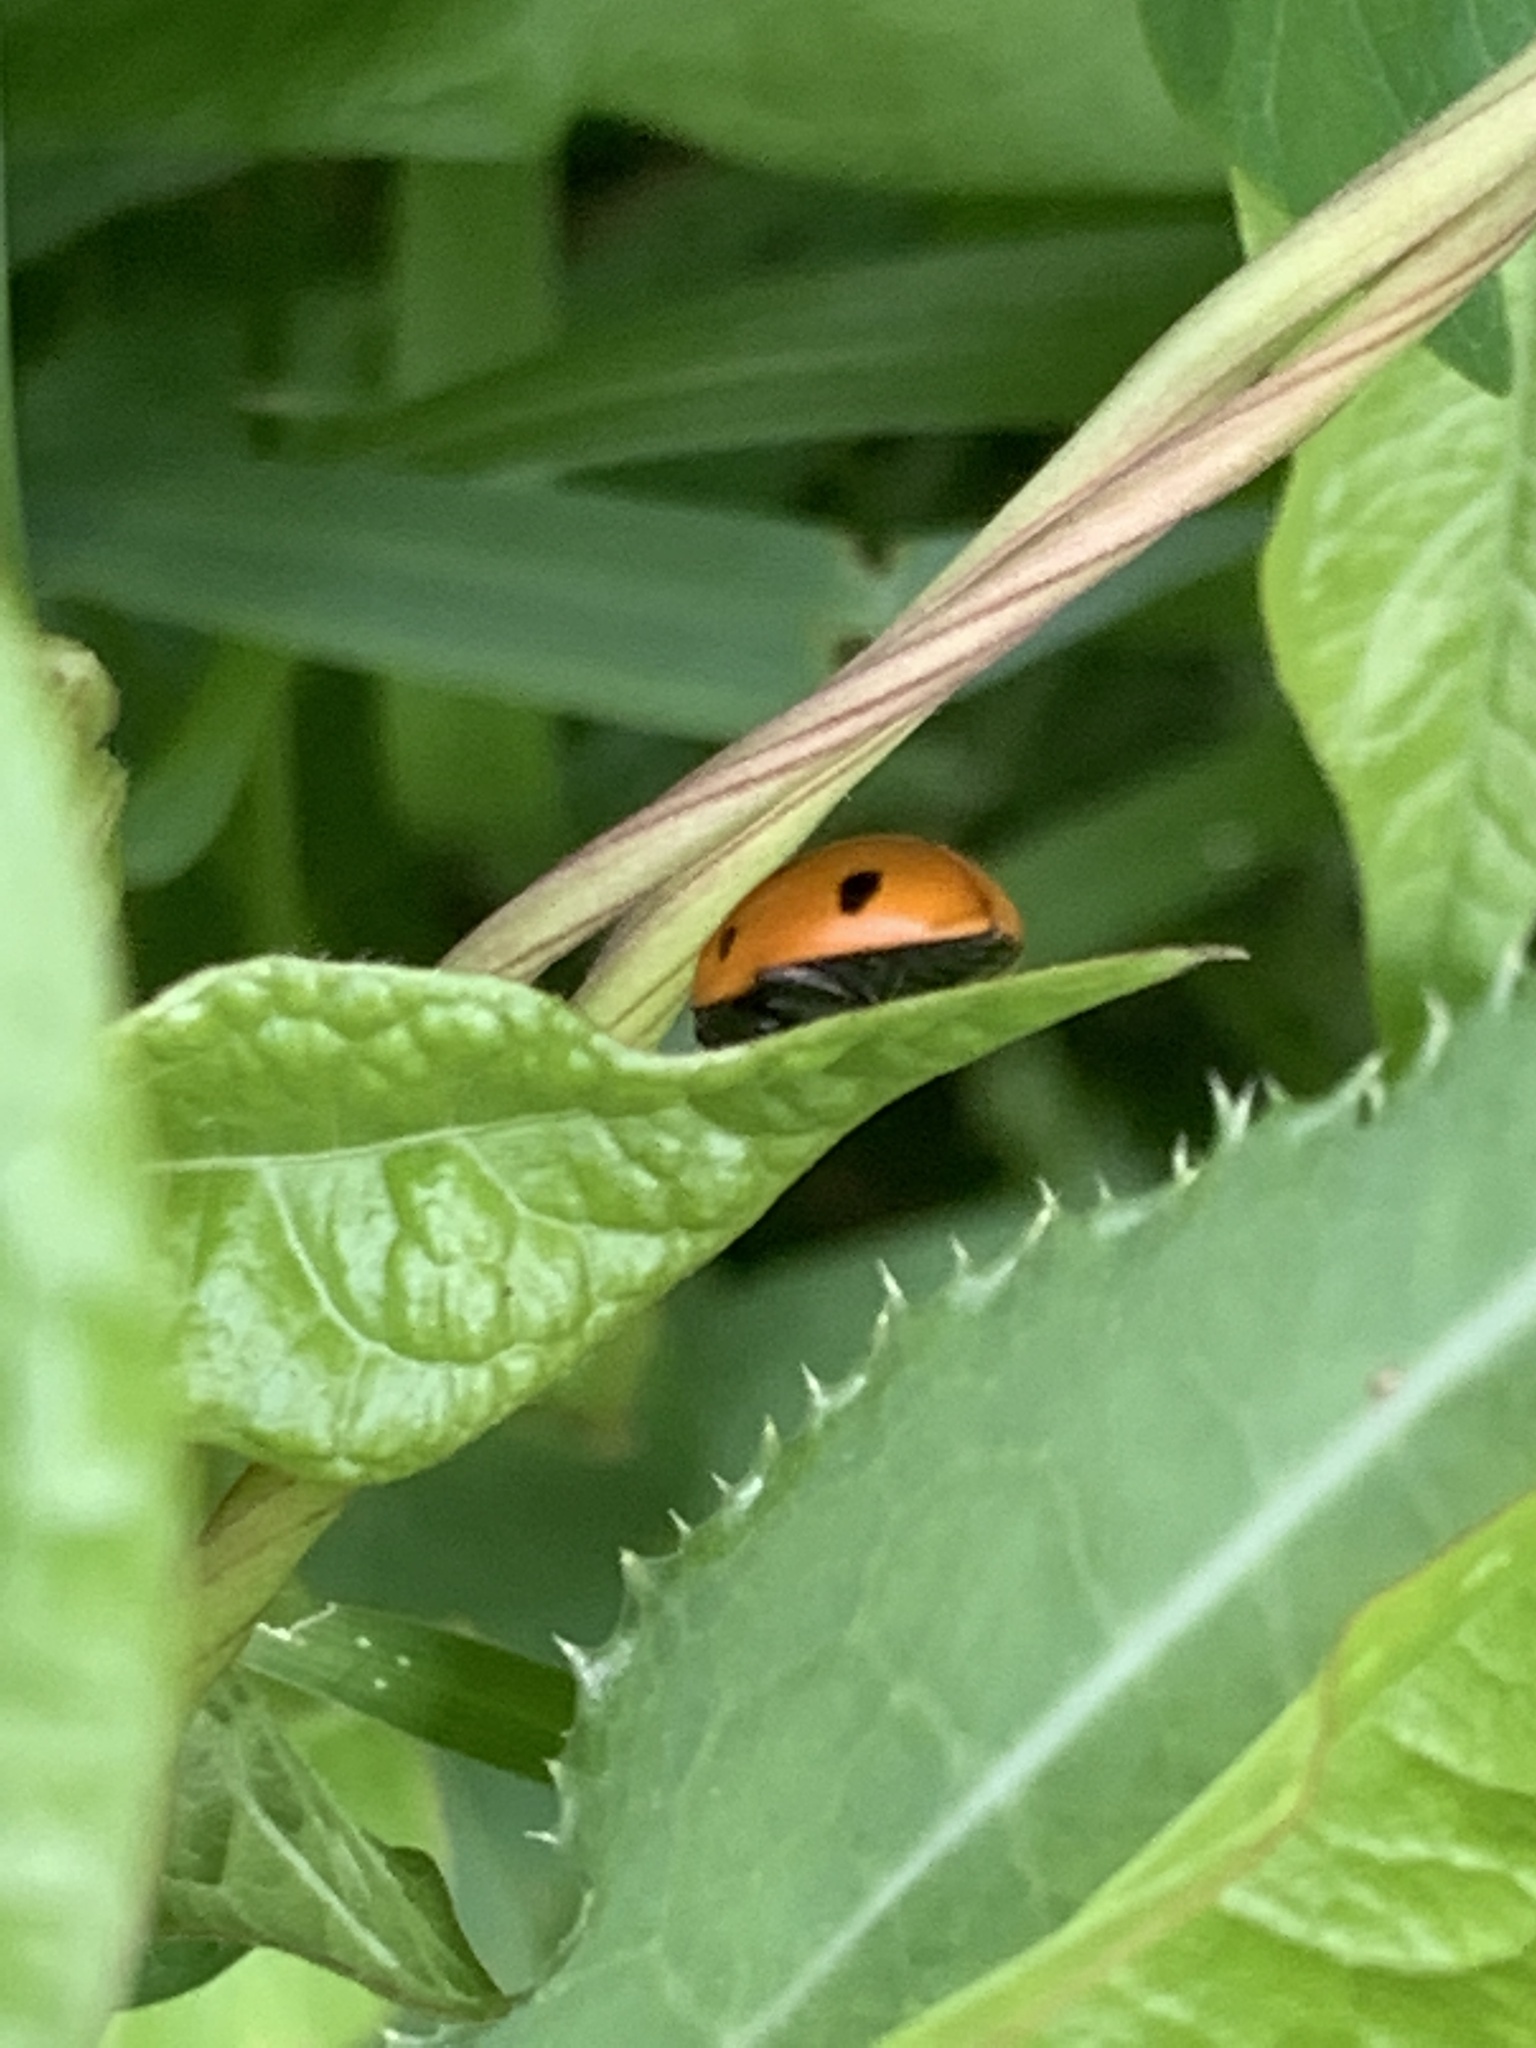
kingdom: Animalia
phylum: Arthropoda
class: Insecta
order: Coleoptera
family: Coccinellidae
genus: Coccinella
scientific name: Coccinella septempunctata
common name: Sevenspotted lady beetle
